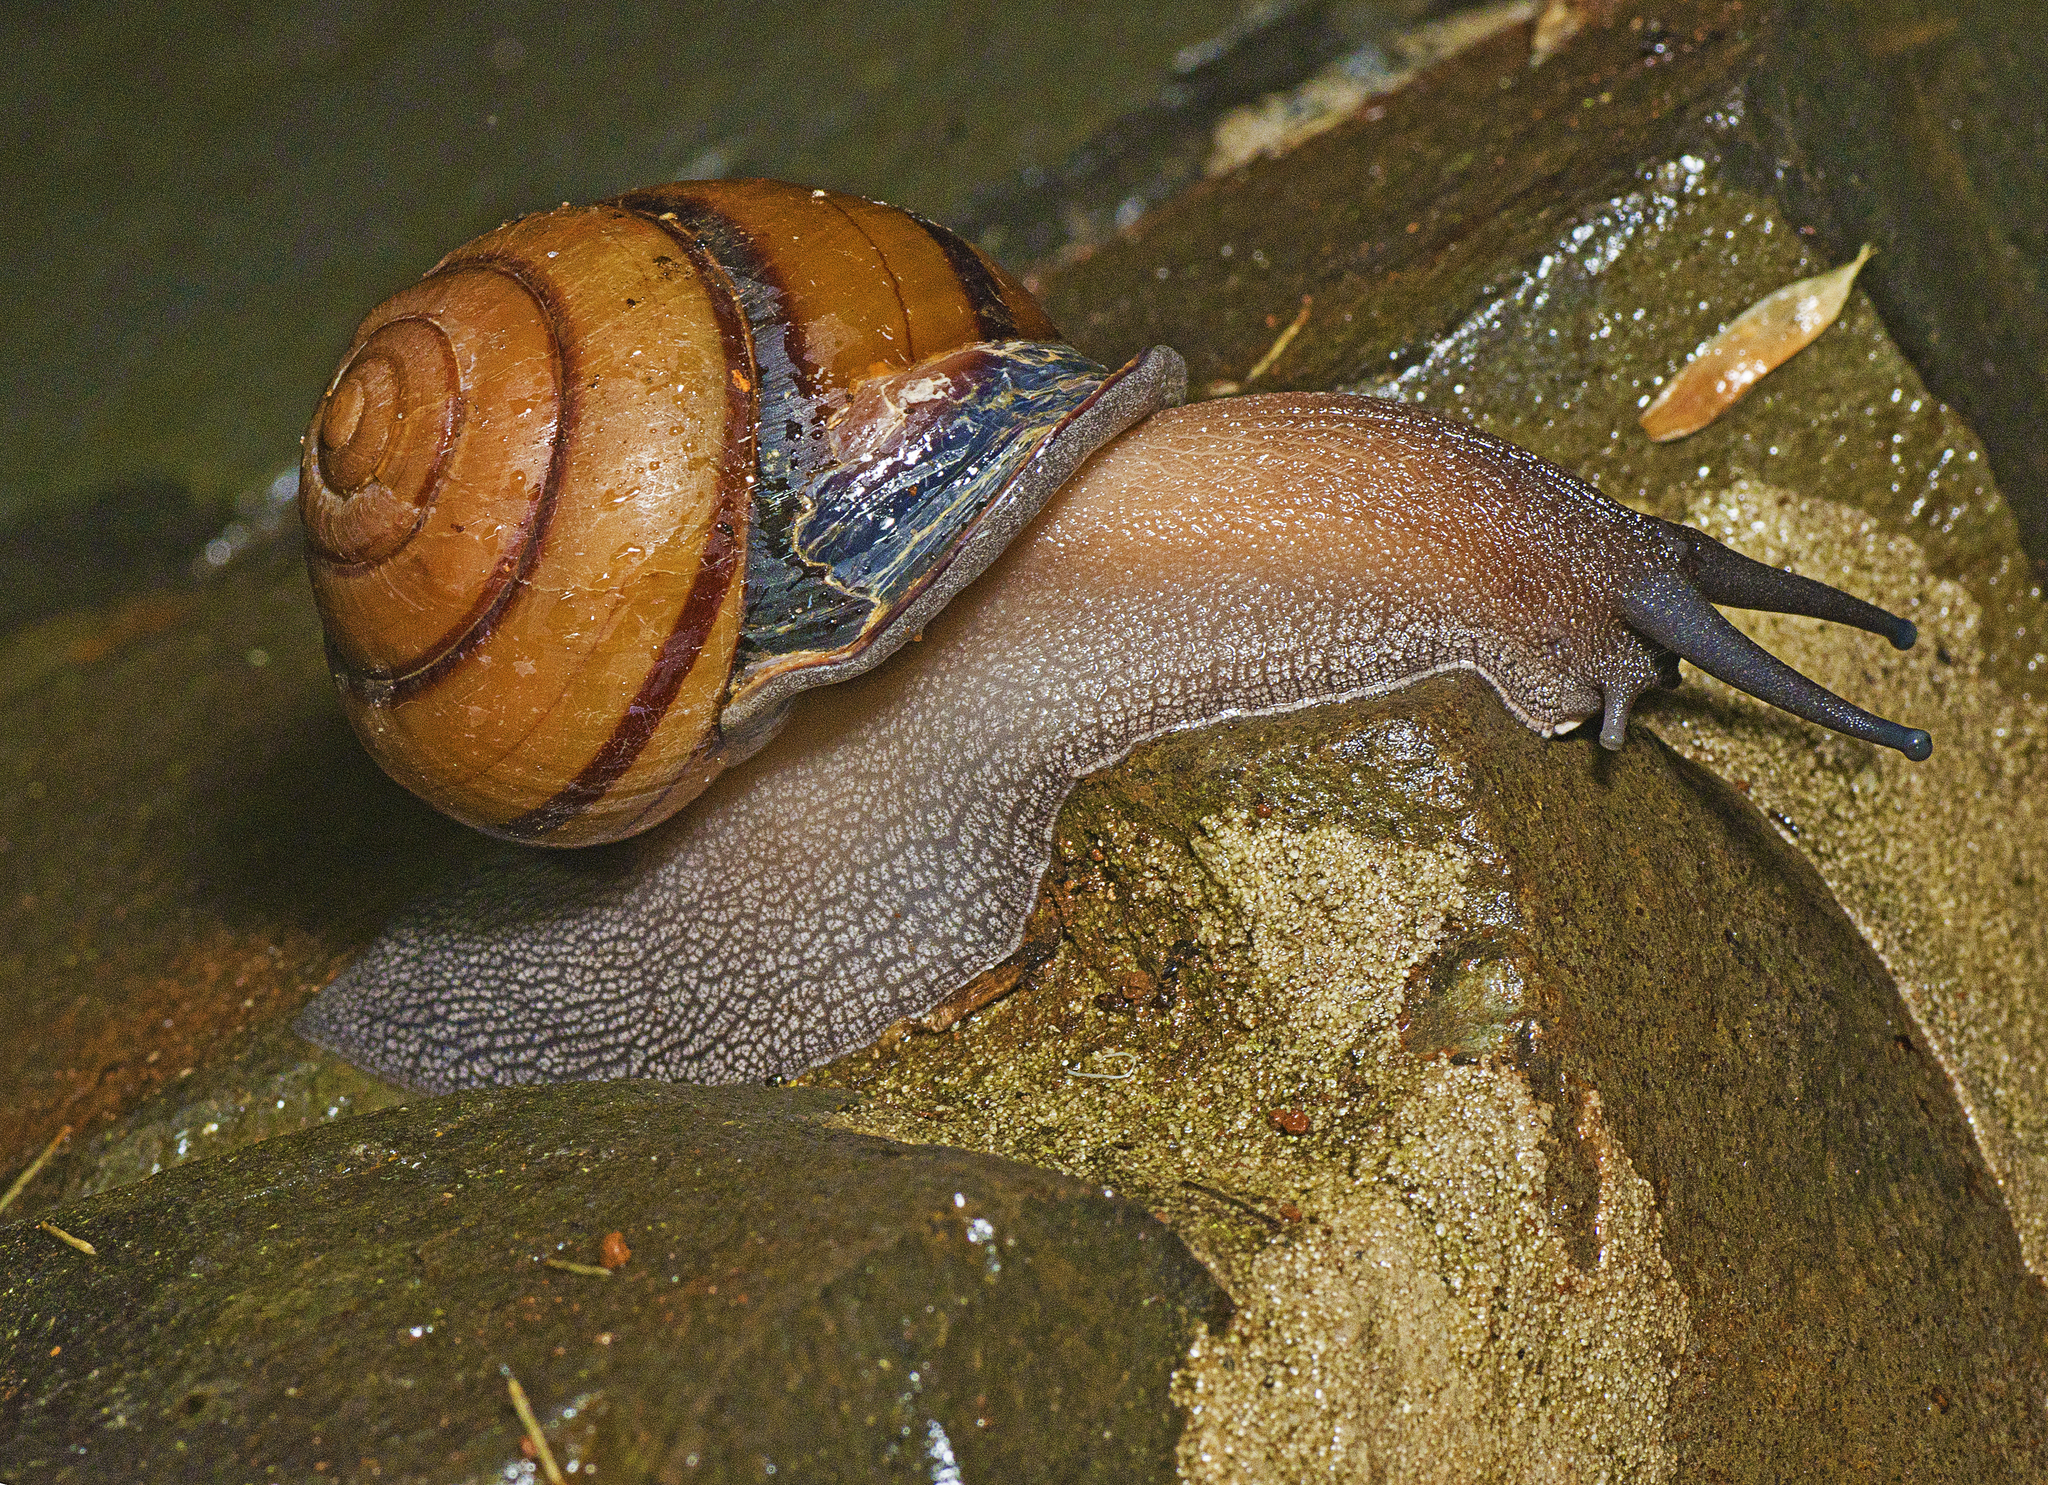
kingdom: Animalia
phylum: Mollusca
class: Gastropoda
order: Stylommatophora
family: Camaenidae
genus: Sphaerospira
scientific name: Sphaerospira fraseri
